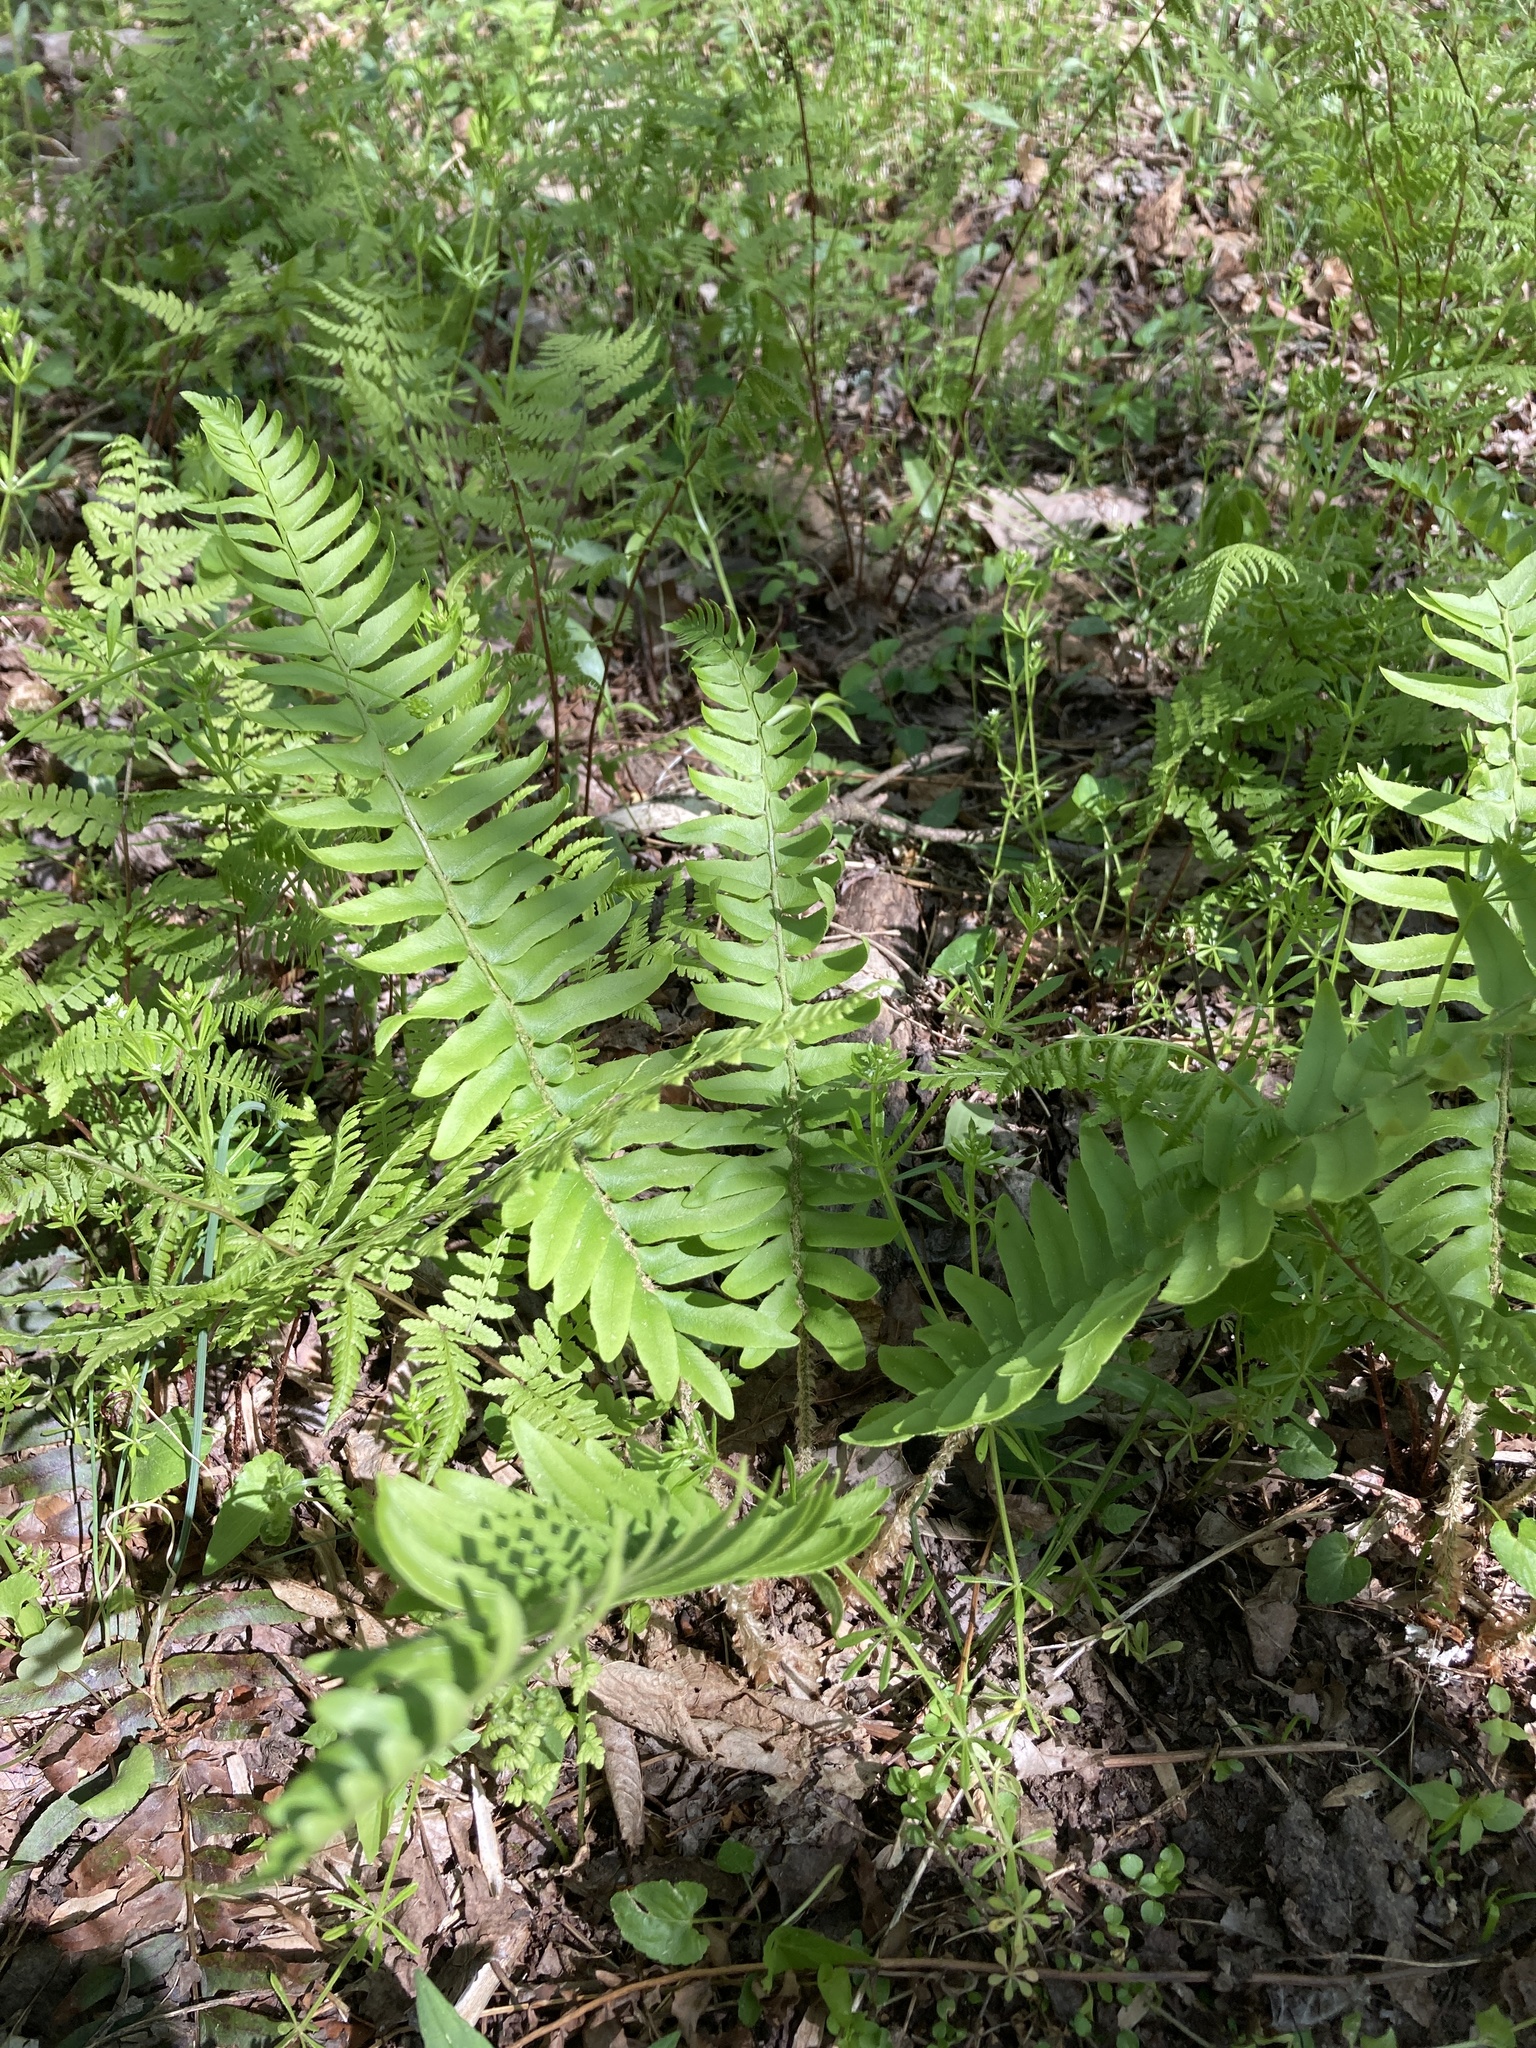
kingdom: Plantae
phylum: Tracheophyta
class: Polypodiopsida
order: Polypodiales
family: Dryopteridaceae
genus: Polystichum
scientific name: Polystichum acrostichoides
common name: Christmas fern
